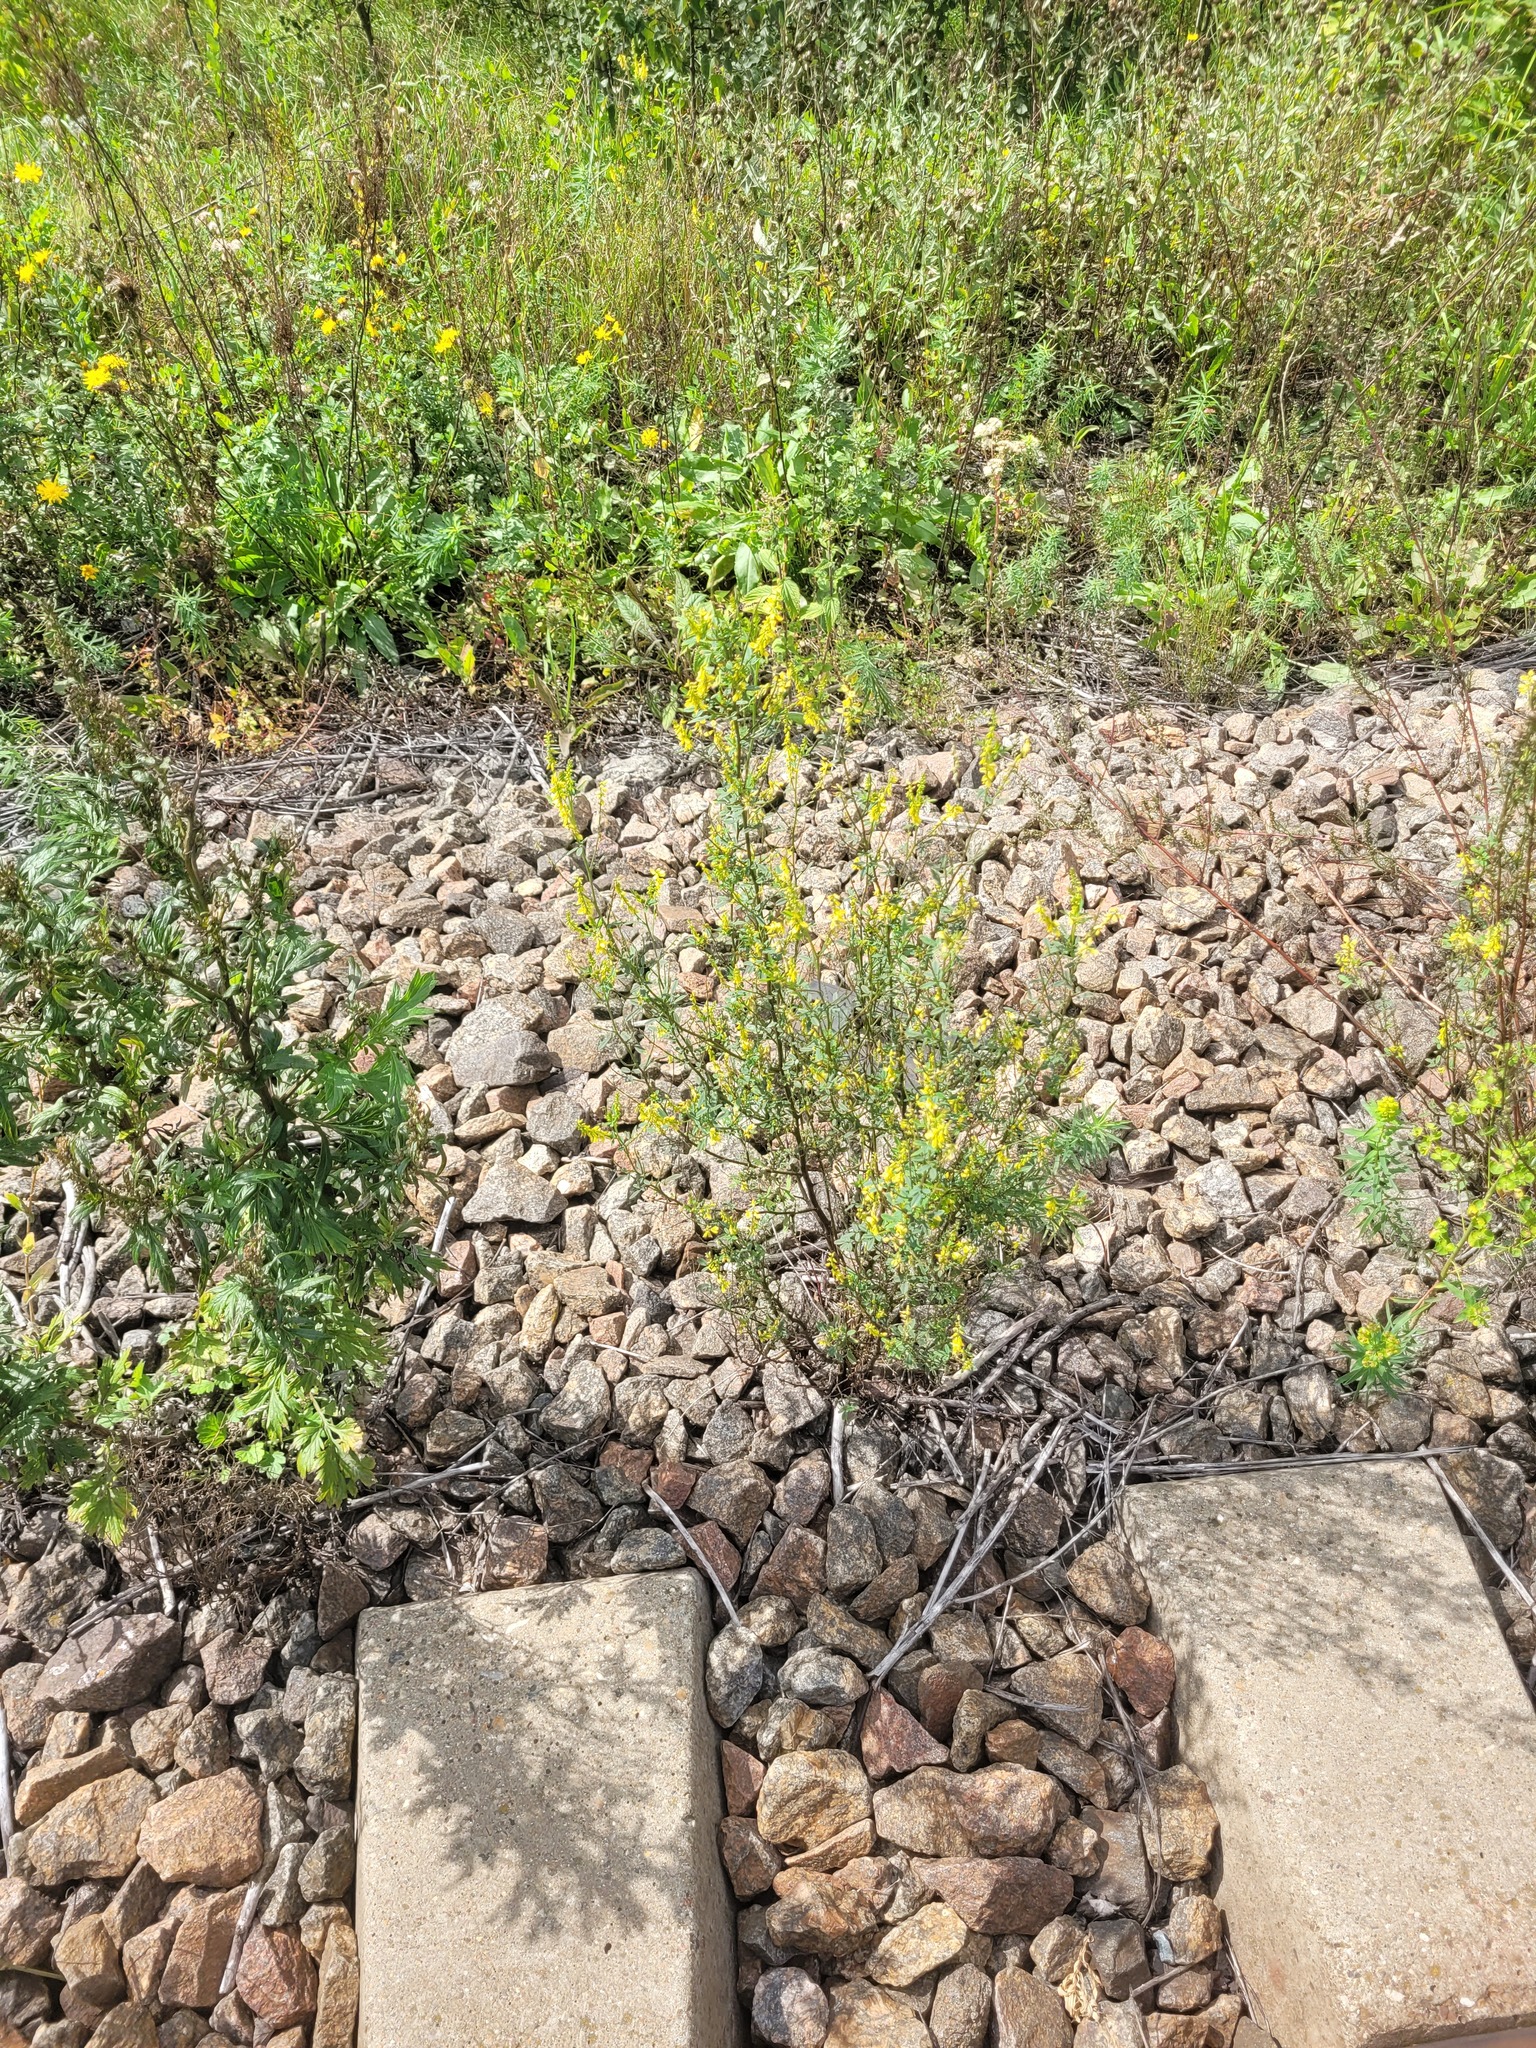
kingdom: Plantae
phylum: Tracheophyta
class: Magnoliopsida
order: Fabales
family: Fabaceae
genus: Melilotus
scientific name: Melilotus officinalis
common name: Sweetclover
